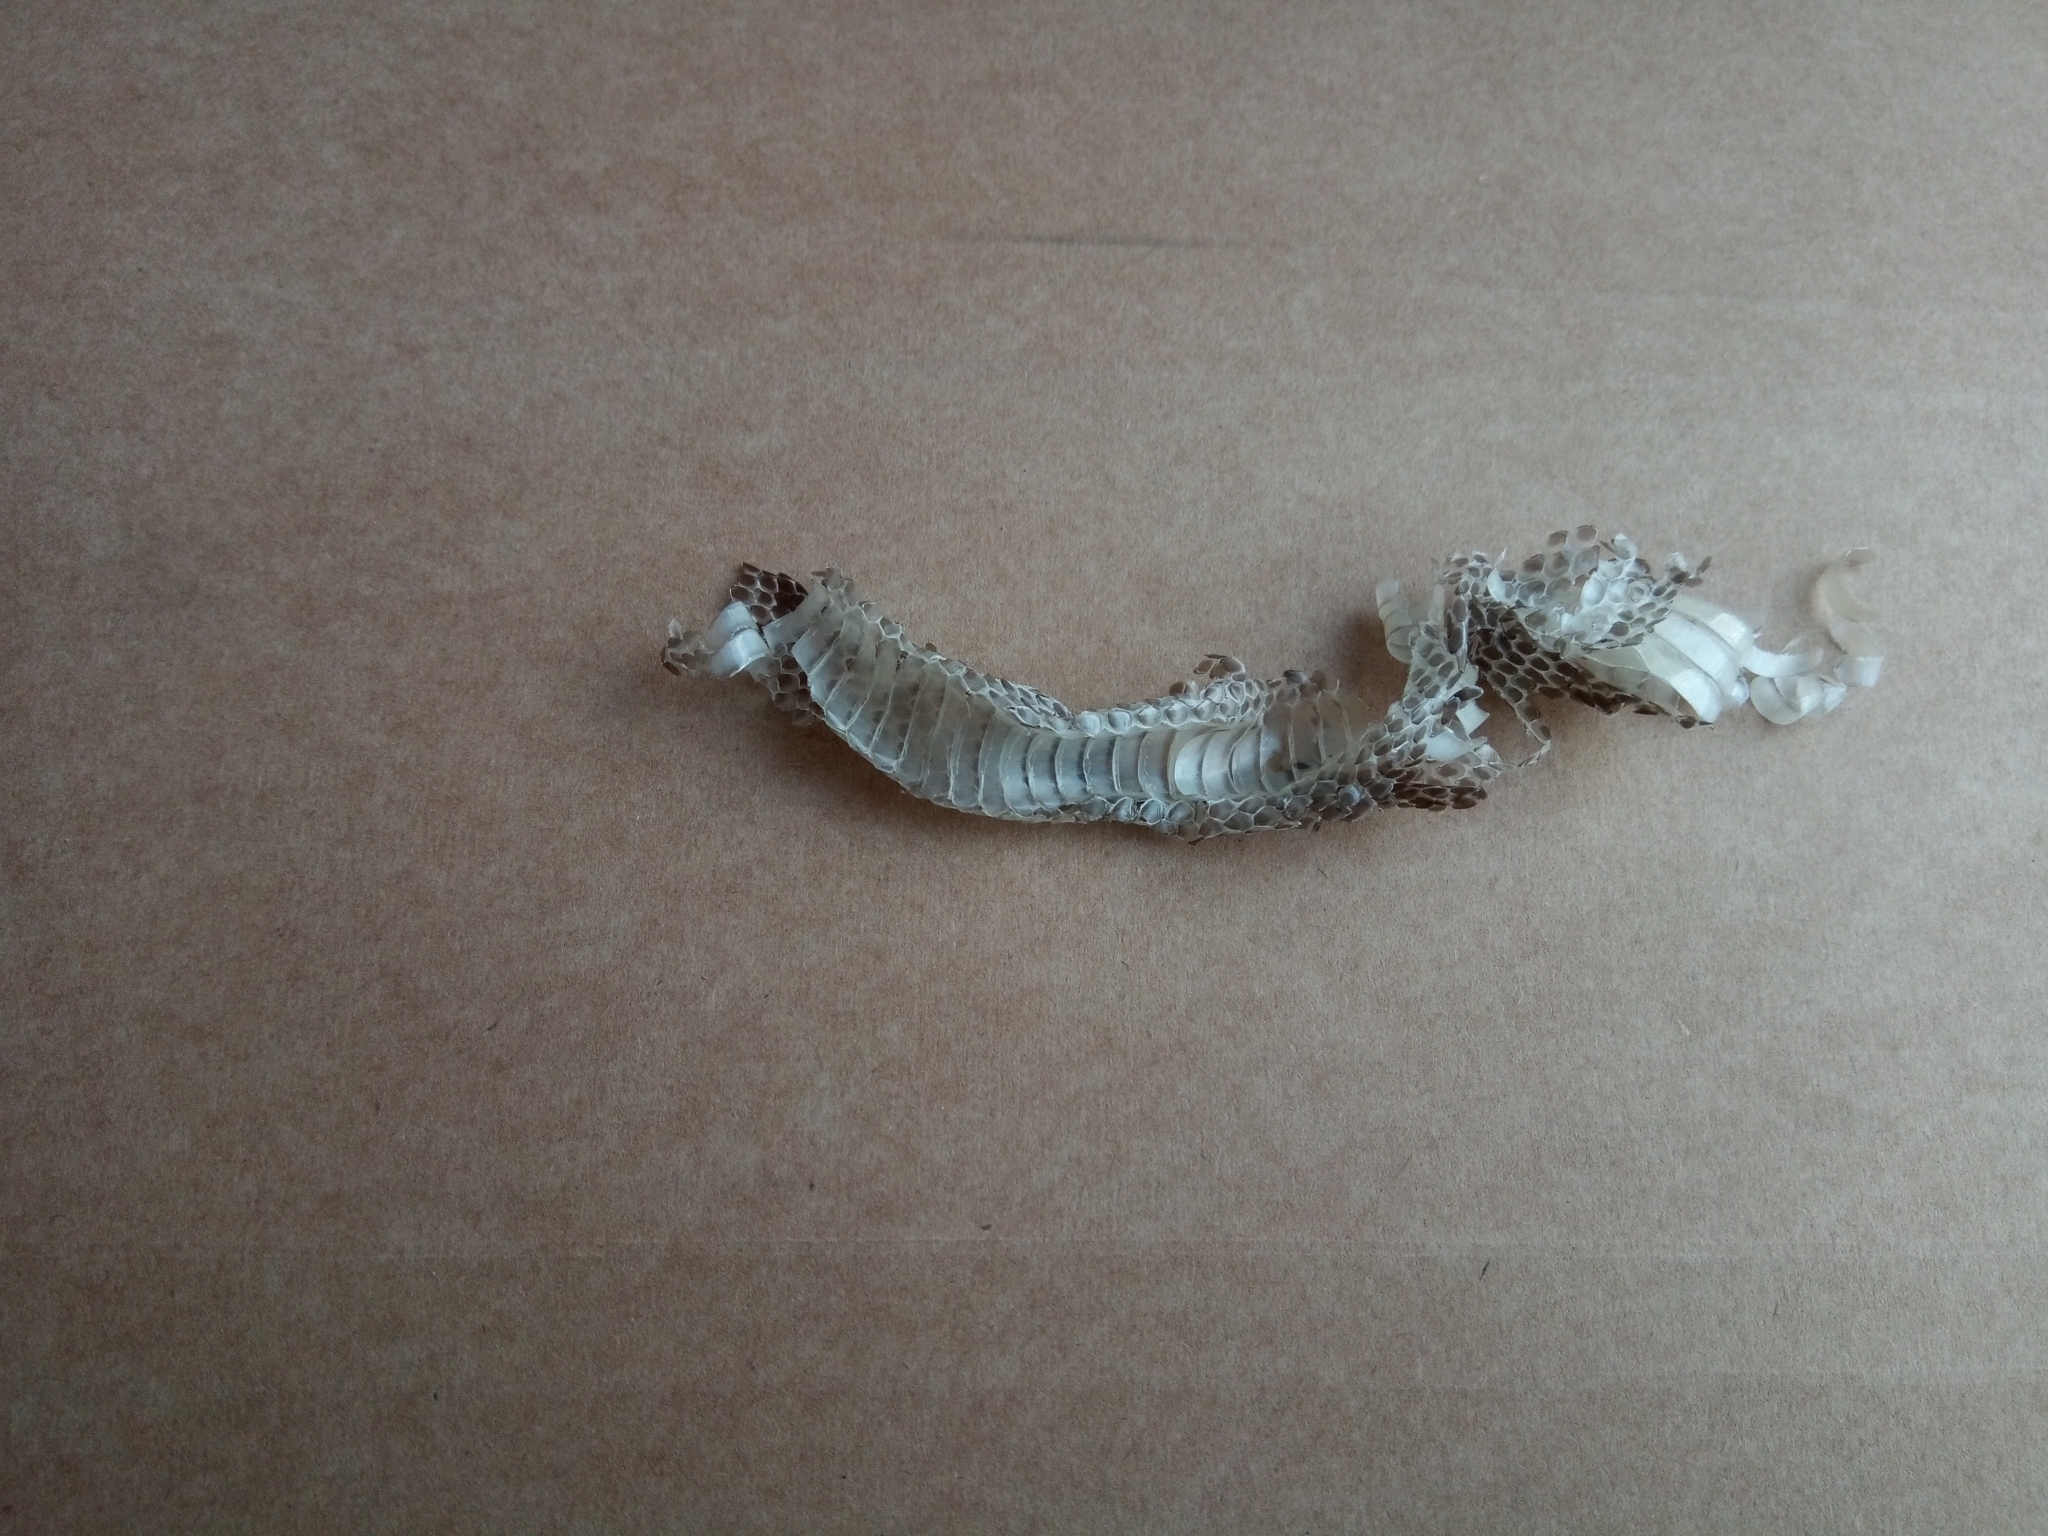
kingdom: Animalia
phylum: Chordata
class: Squamata
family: Colubridae
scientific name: Colubridae
